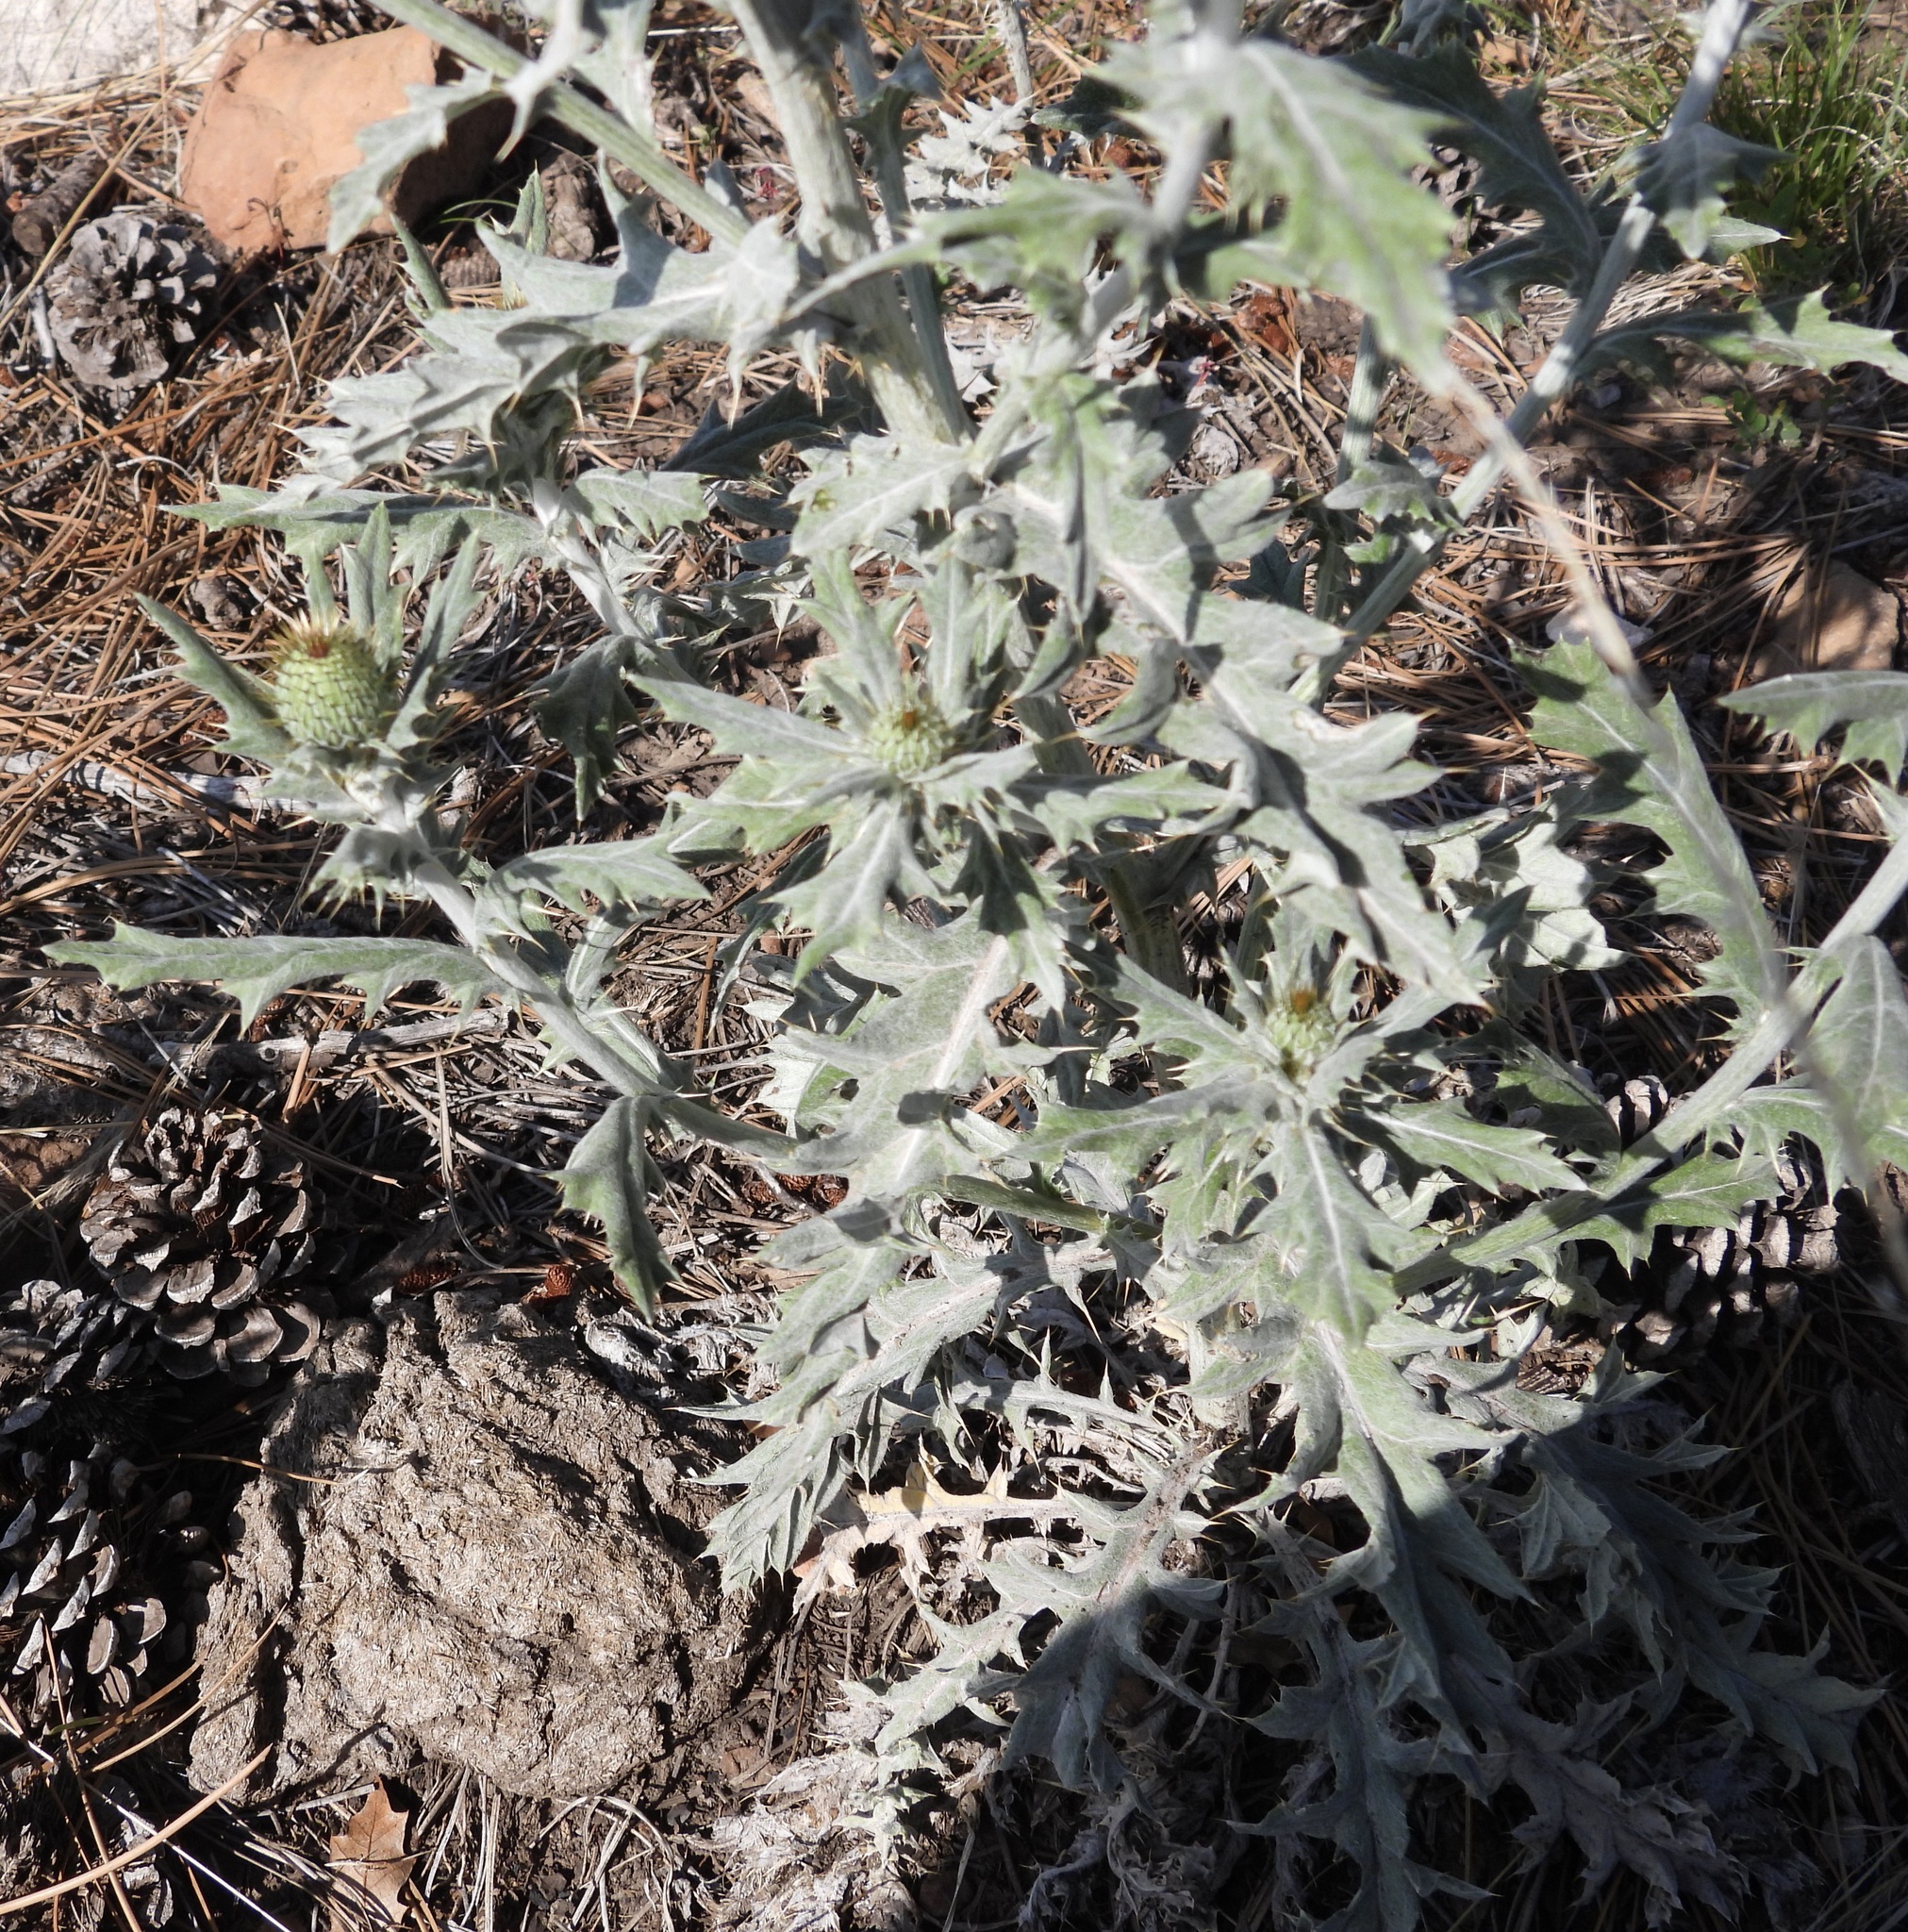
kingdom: Plantae
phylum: Tracheophyta
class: Magnoliopsida
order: Asterales
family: Asteraceae
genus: Cirsium
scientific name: Cirsium undulatum
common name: Pasture thistle
